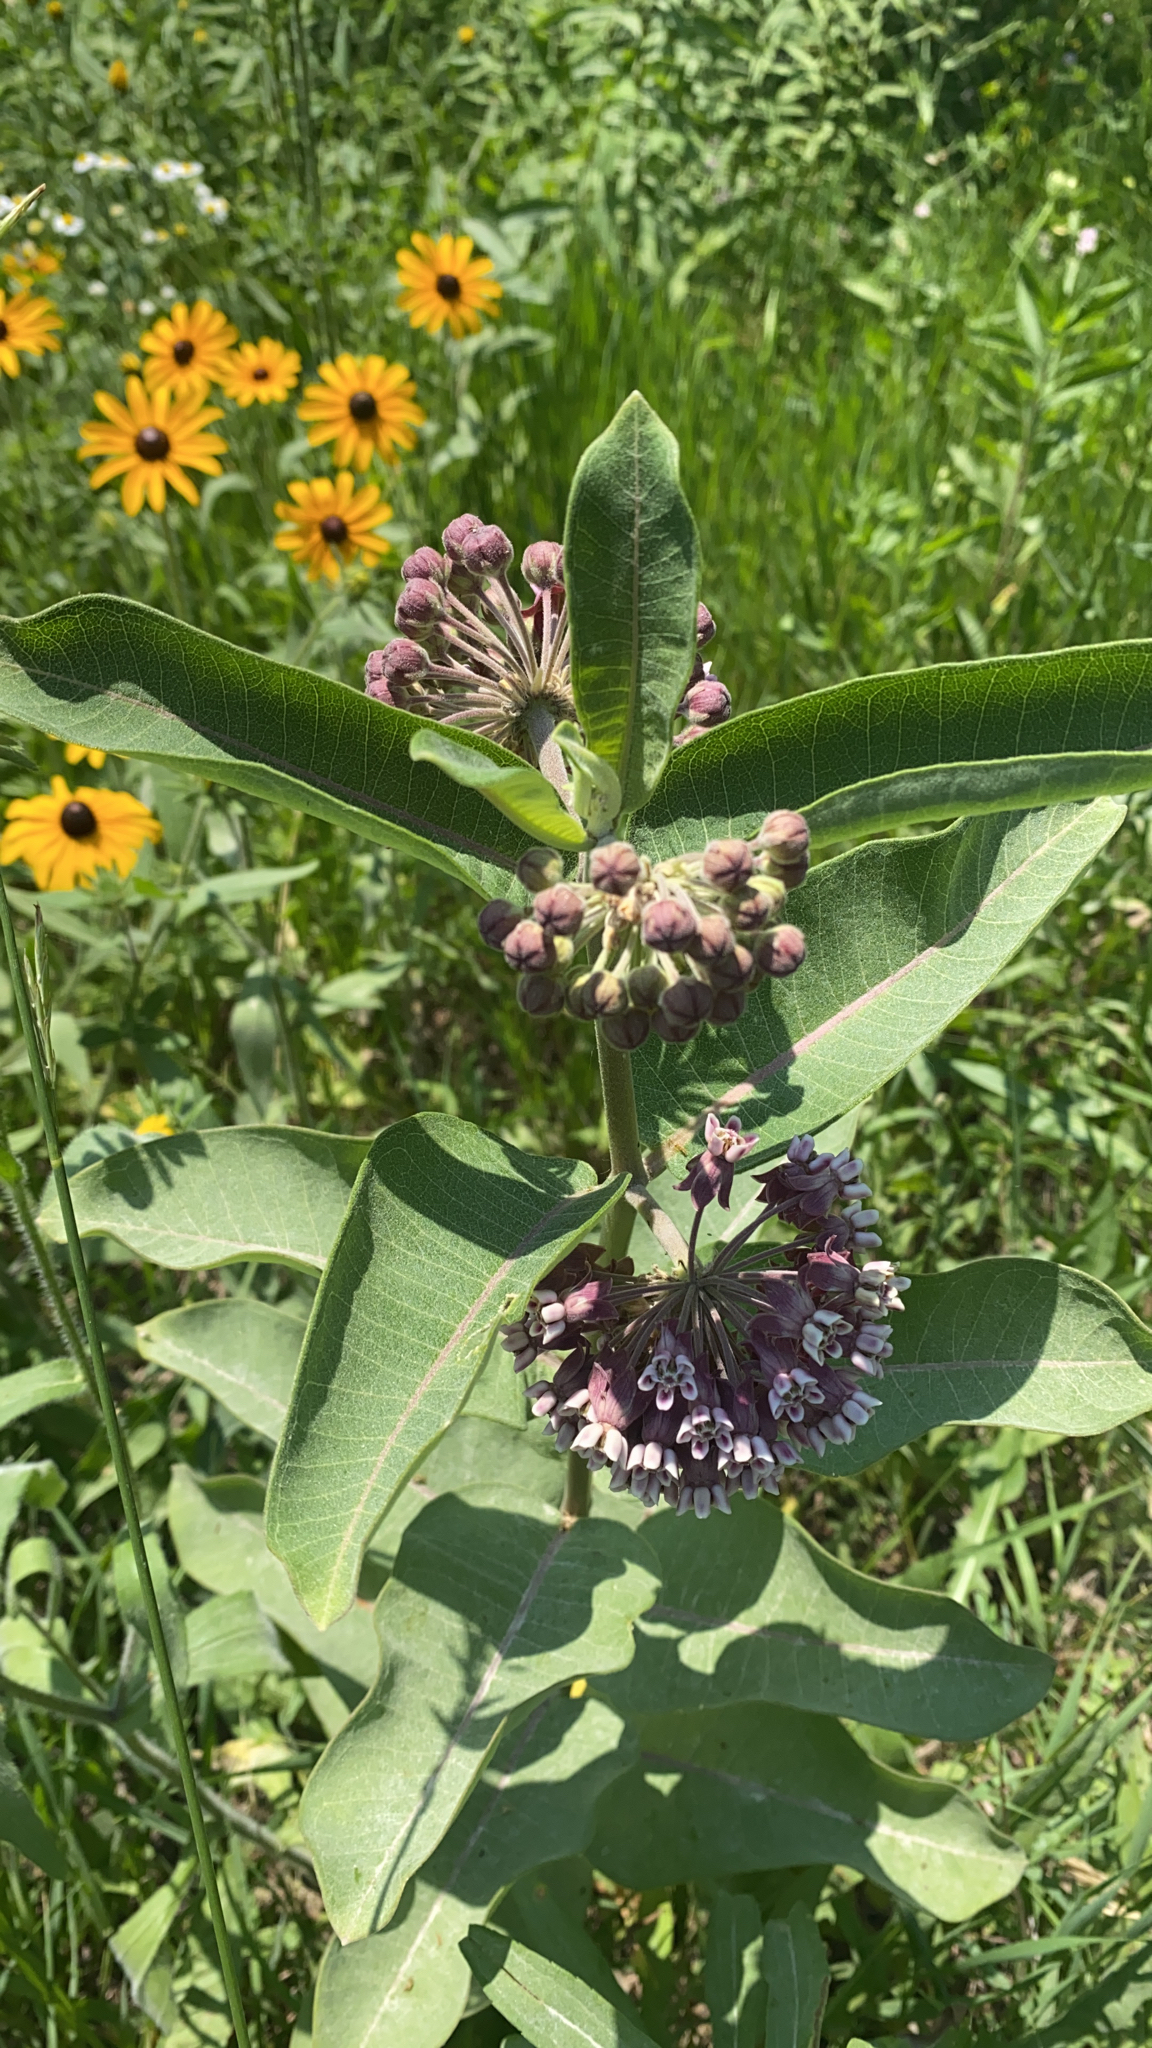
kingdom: Plantae
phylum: Tracheophyta
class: Magnoliopsida
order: Gentianales
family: Apocynaceae
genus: Asclepias
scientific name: Asclepias syriaca
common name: Common milkweed
